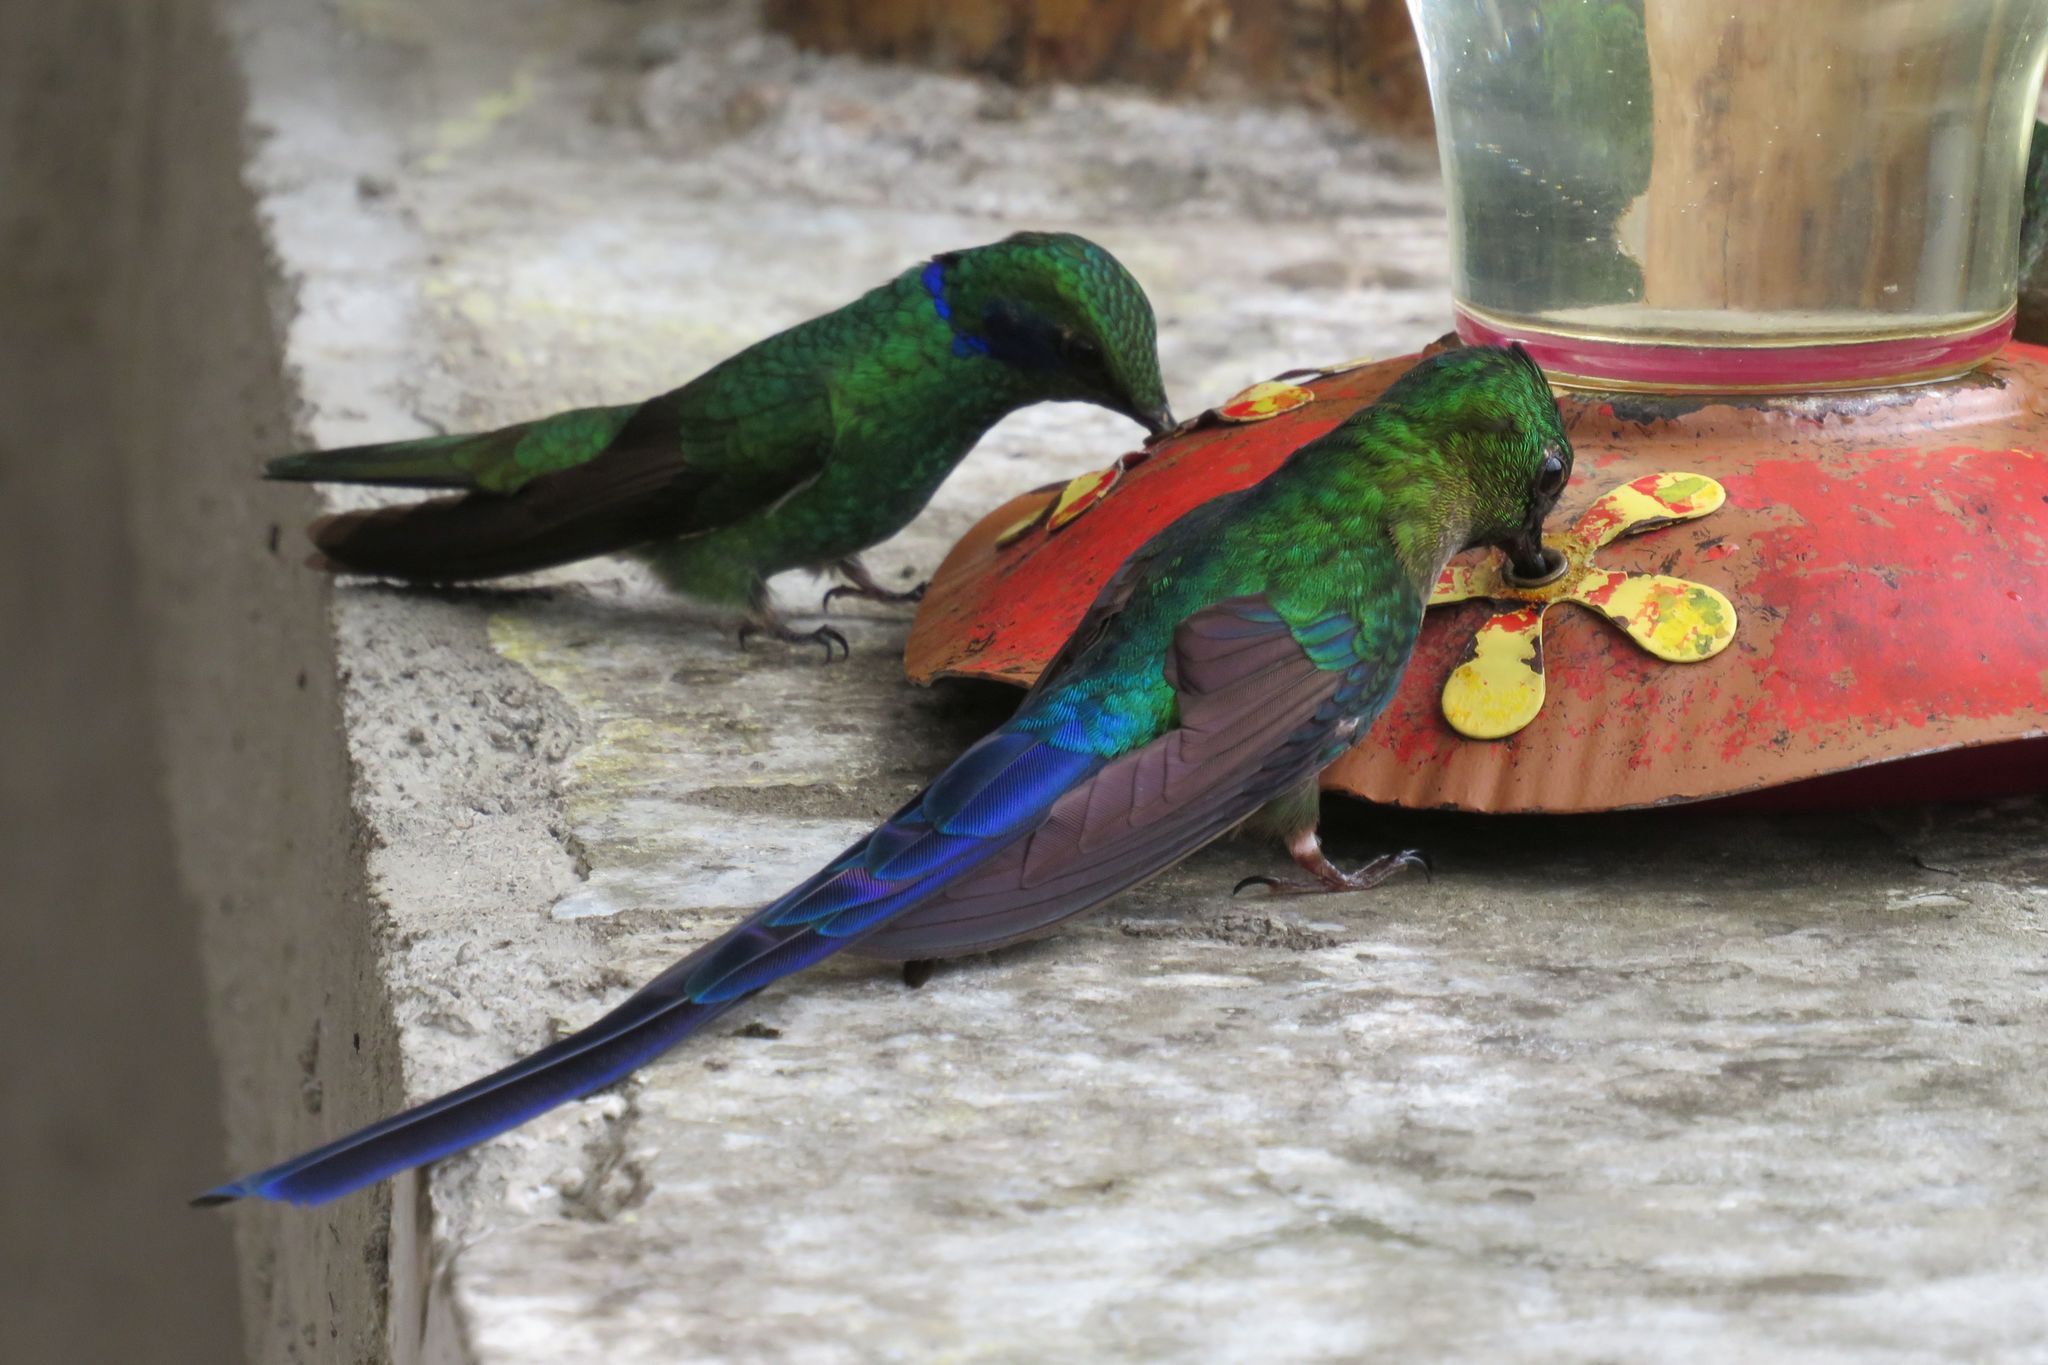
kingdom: Animalia
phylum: Chordata
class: Aves
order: Apodiformes
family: Trochilidae
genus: Colibri
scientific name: Colibri coruscans
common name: Sparkling violetear
